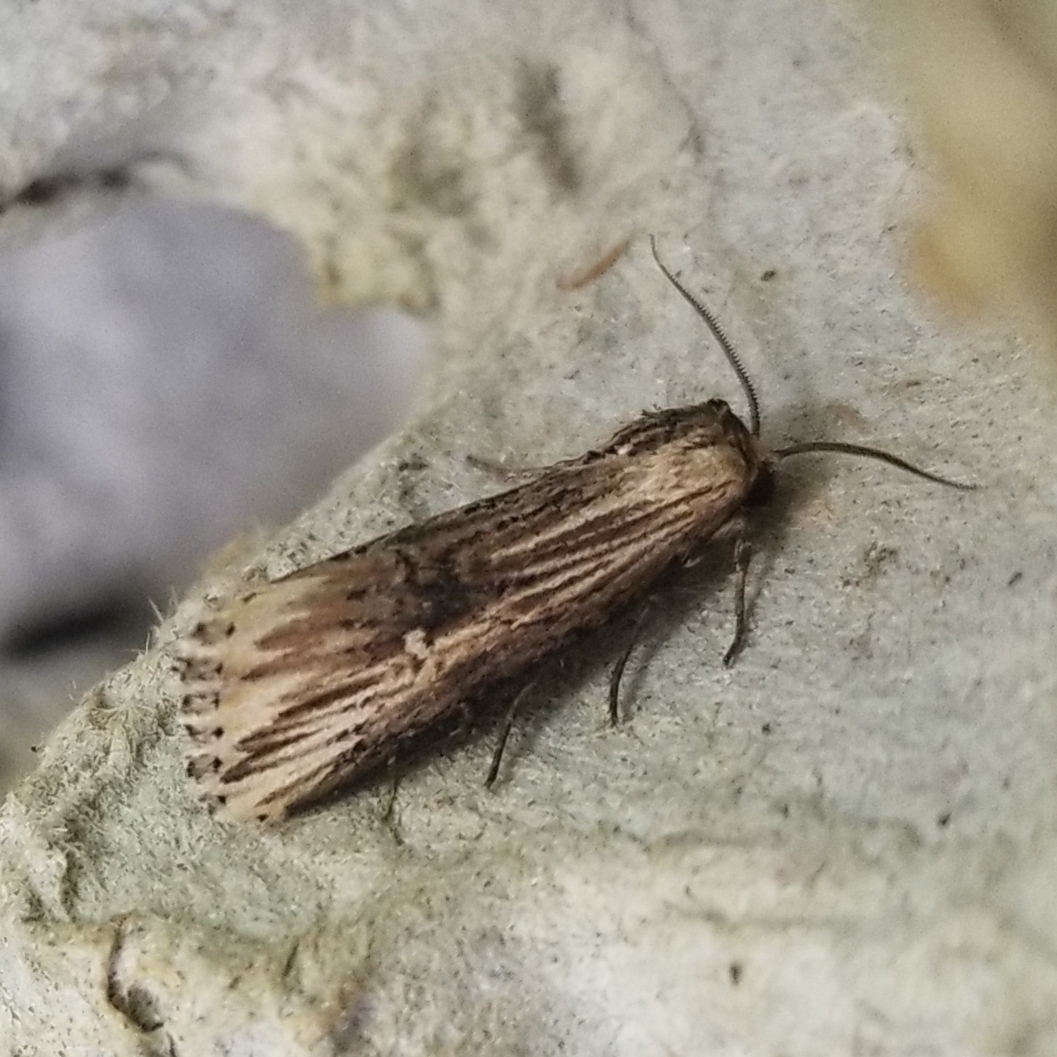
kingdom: Animalia
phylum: Arthropoda
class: Insecta
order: Lepidoptera
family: Noctuidae
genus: Crambodes
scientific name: Crambodes talidiformis
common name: Verbena moth
